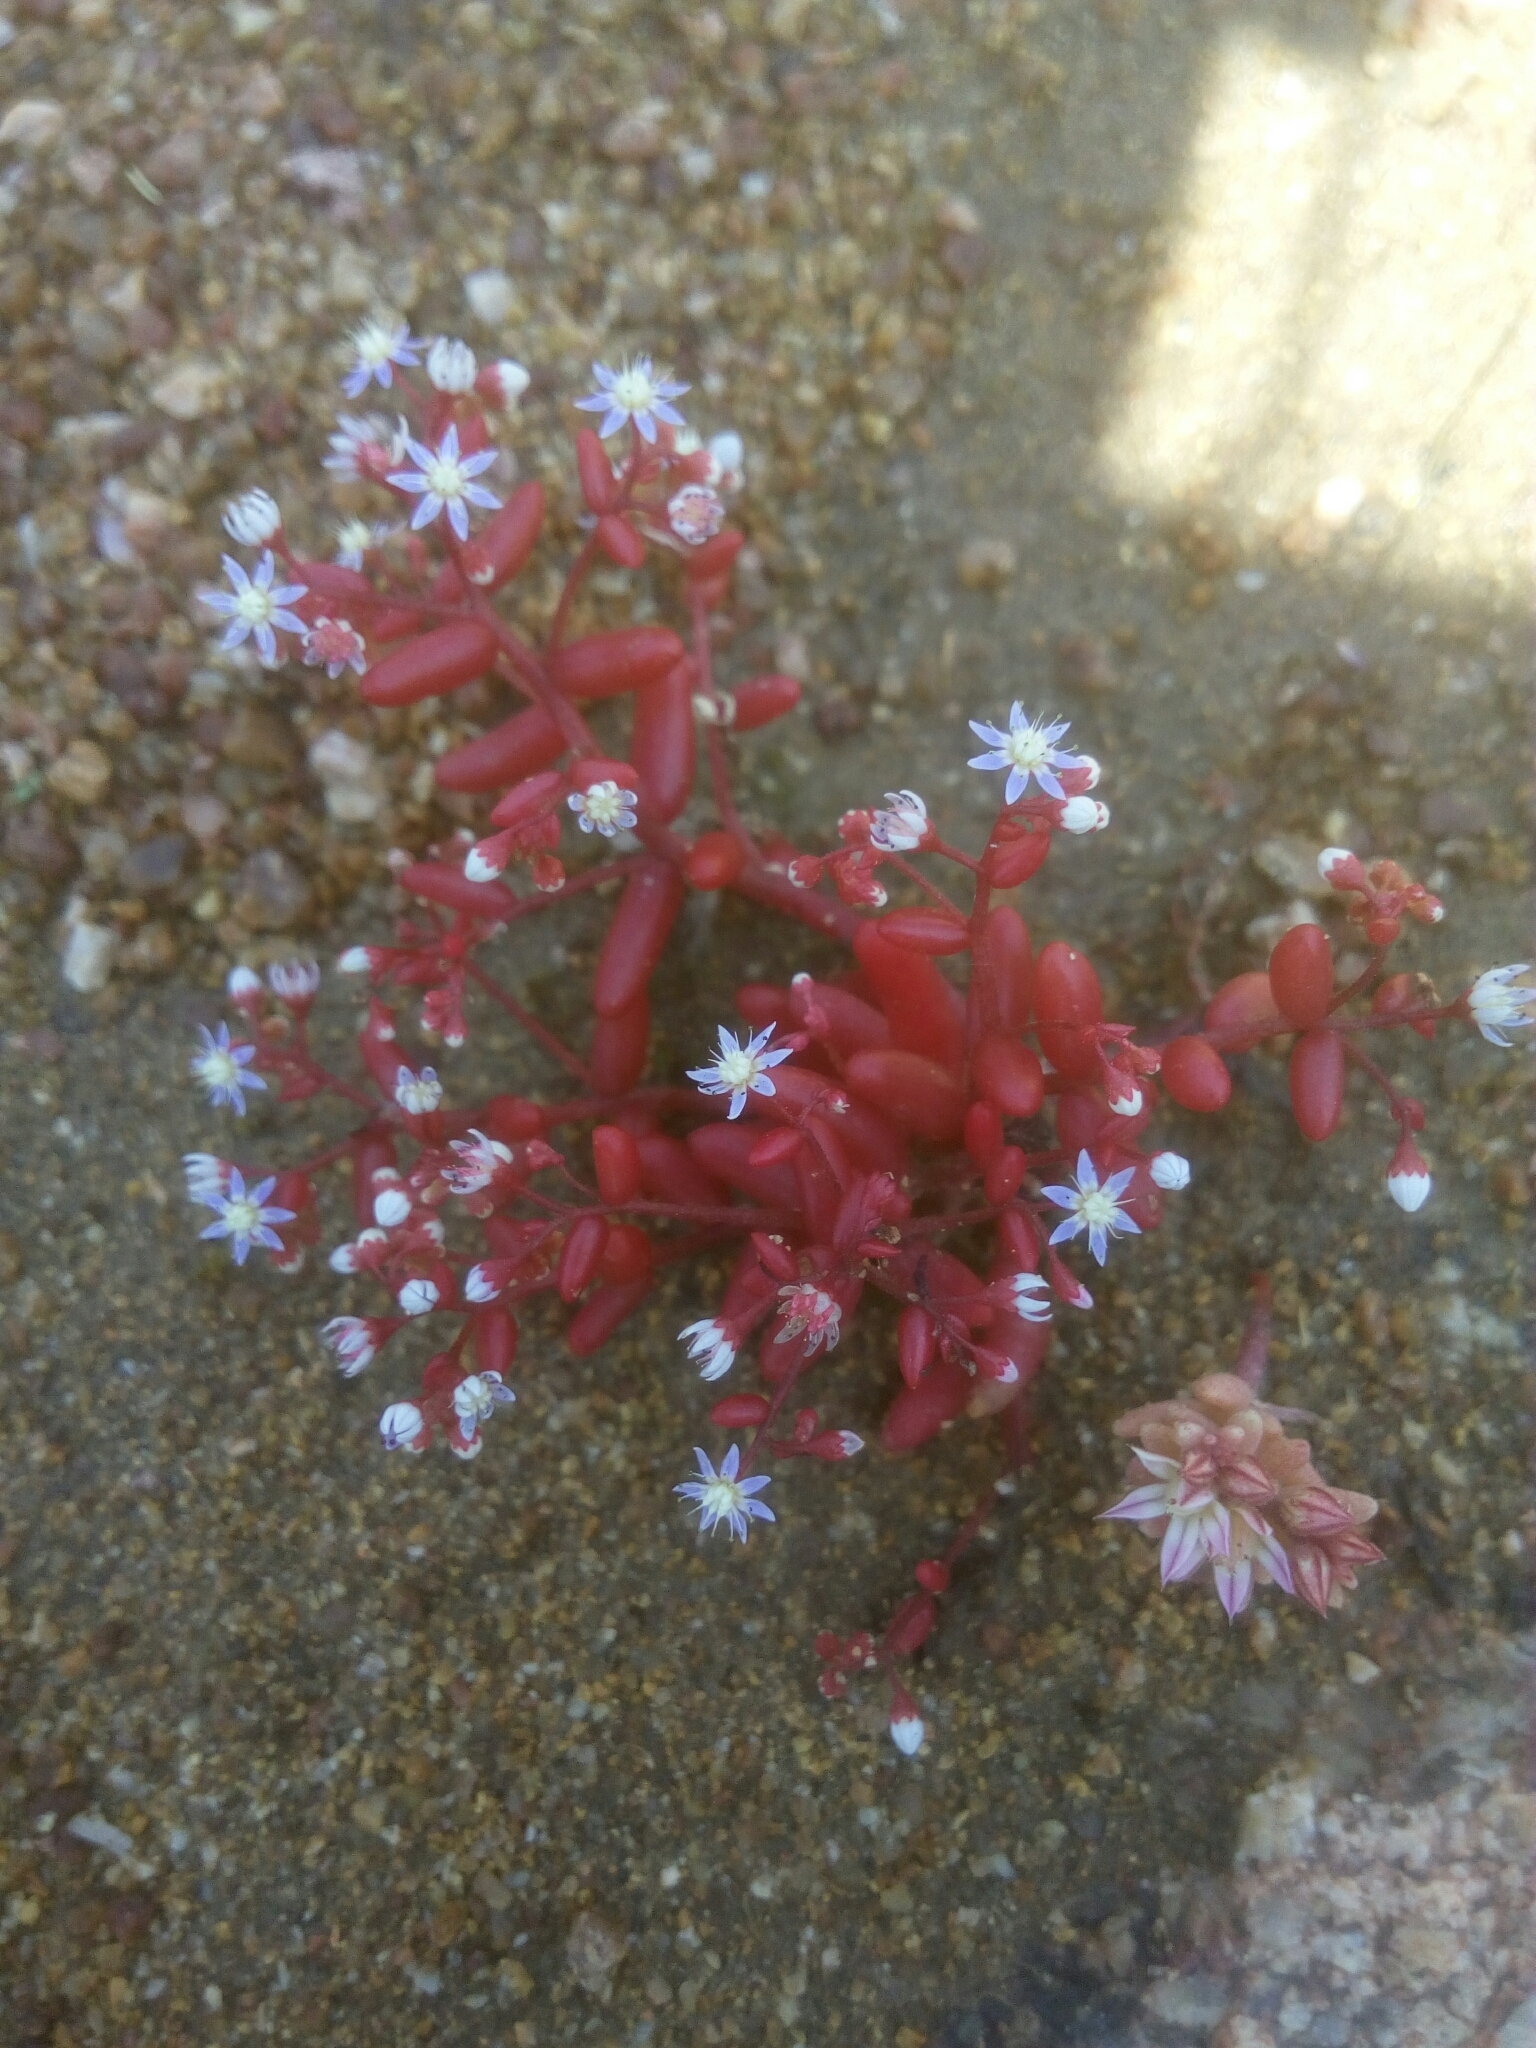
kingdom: Plantae
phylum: Tracheophyta
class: Magnoliopsida
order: Saxifragales
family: Crassulaceae
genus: Sedum
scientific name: Sedum caeruleum
